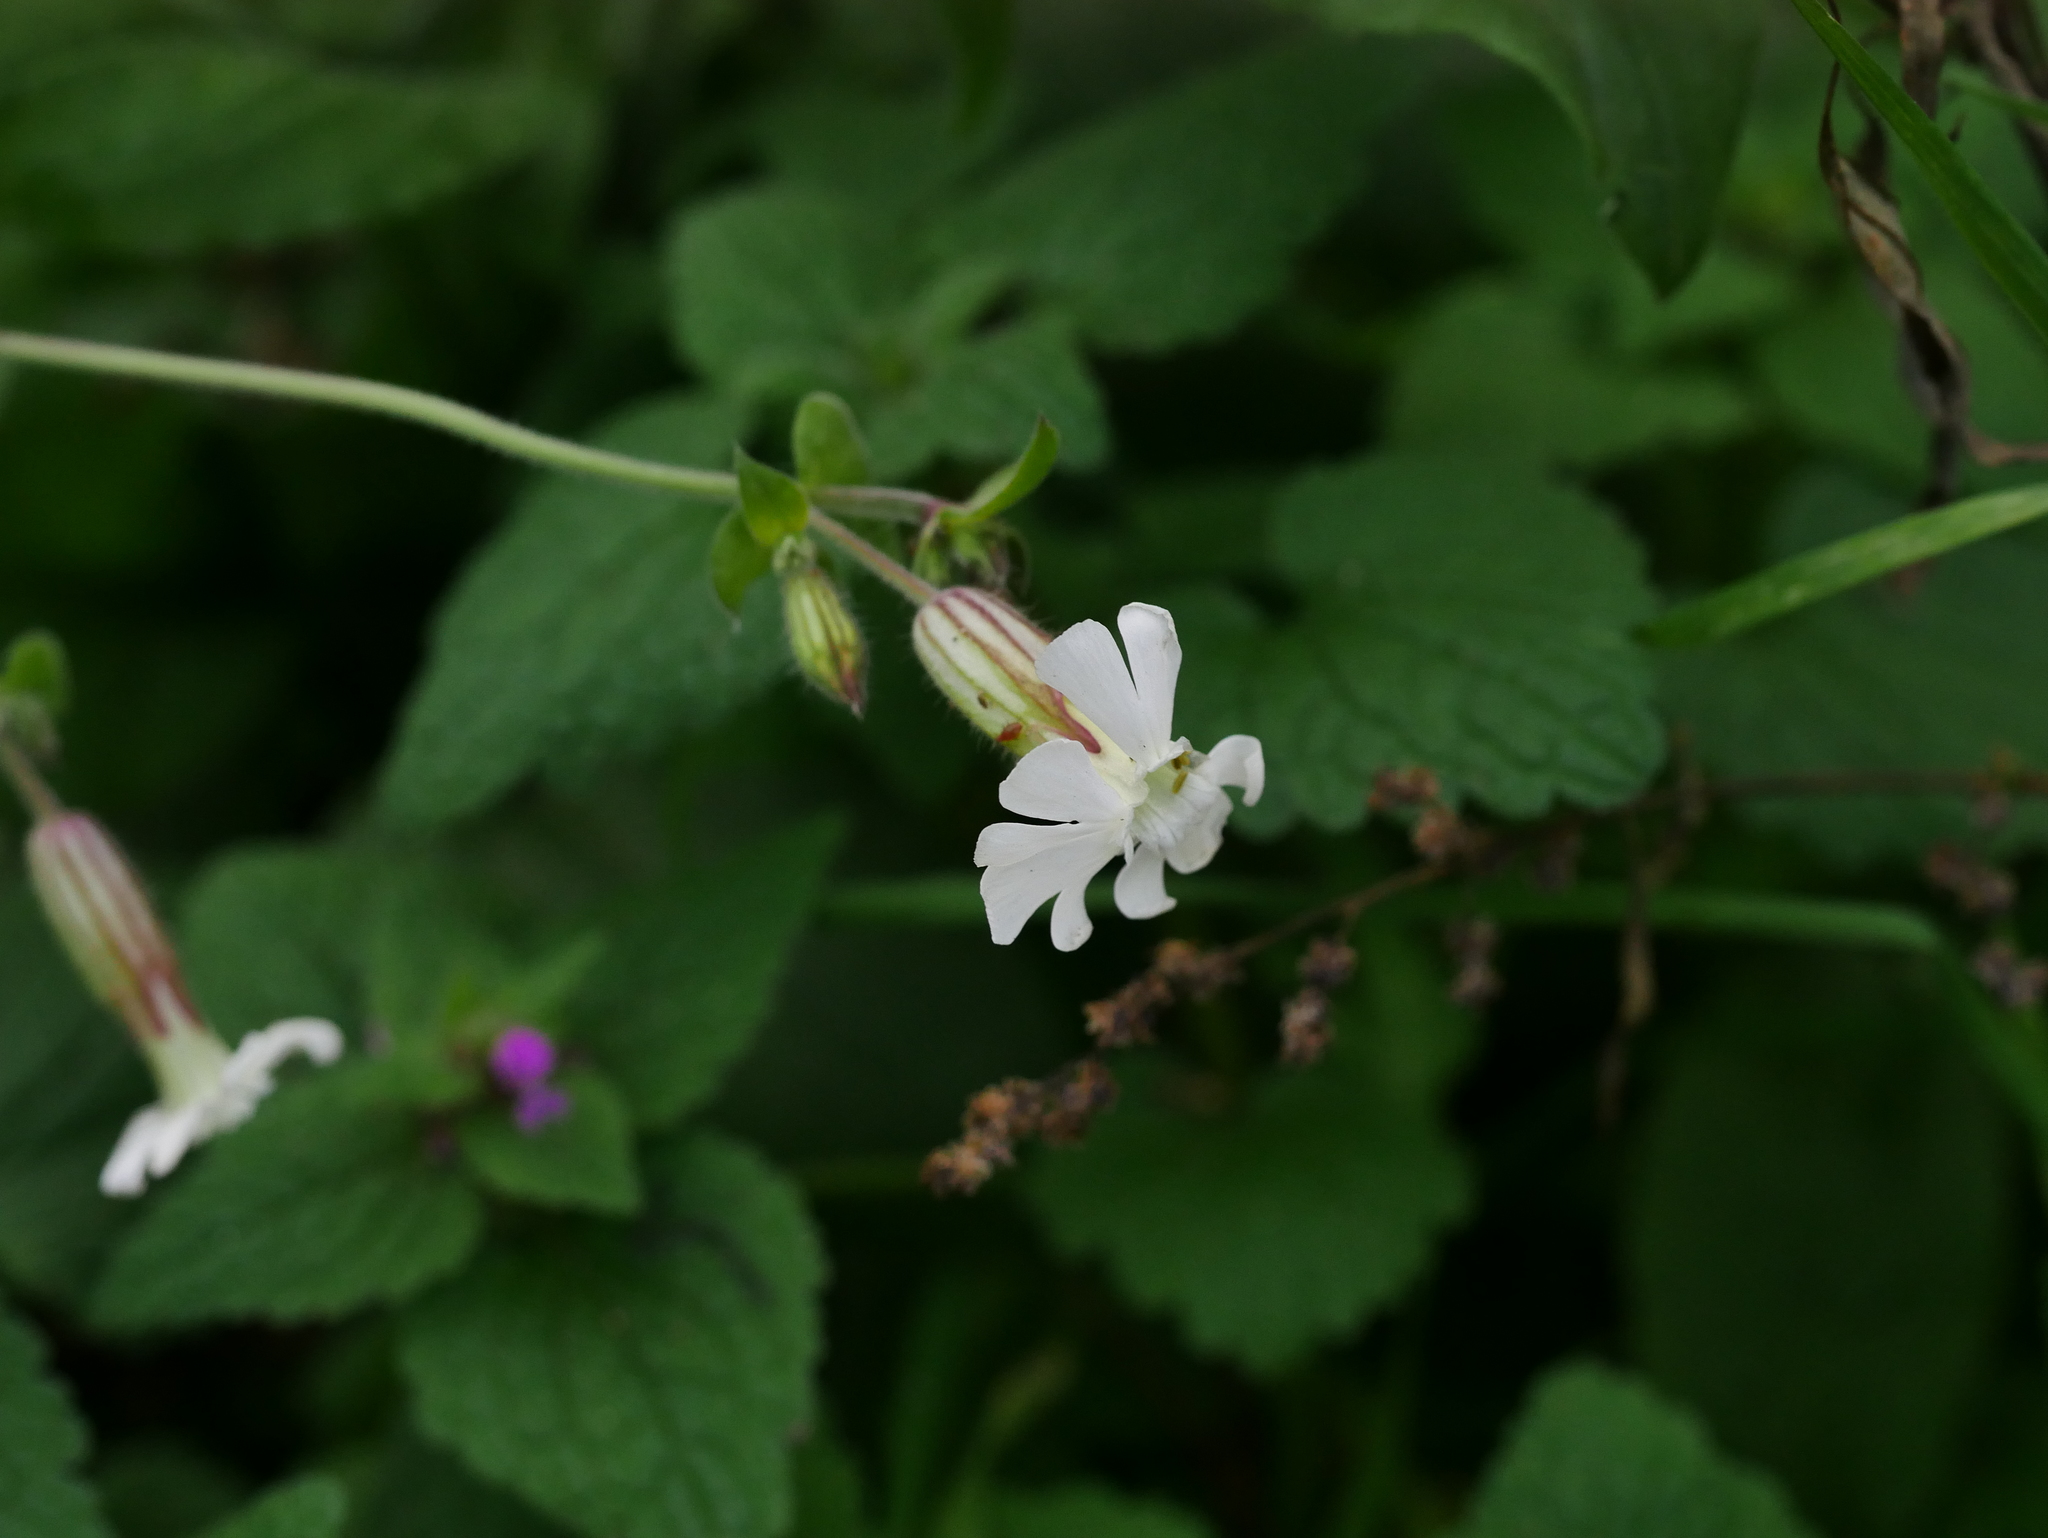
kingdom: Plantae
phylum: Tracheophyta
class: Magnoliopsida
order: Caryophyllales
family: Caryophyllaceae
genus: Silene
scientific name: Silene latifolia
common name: White campion
